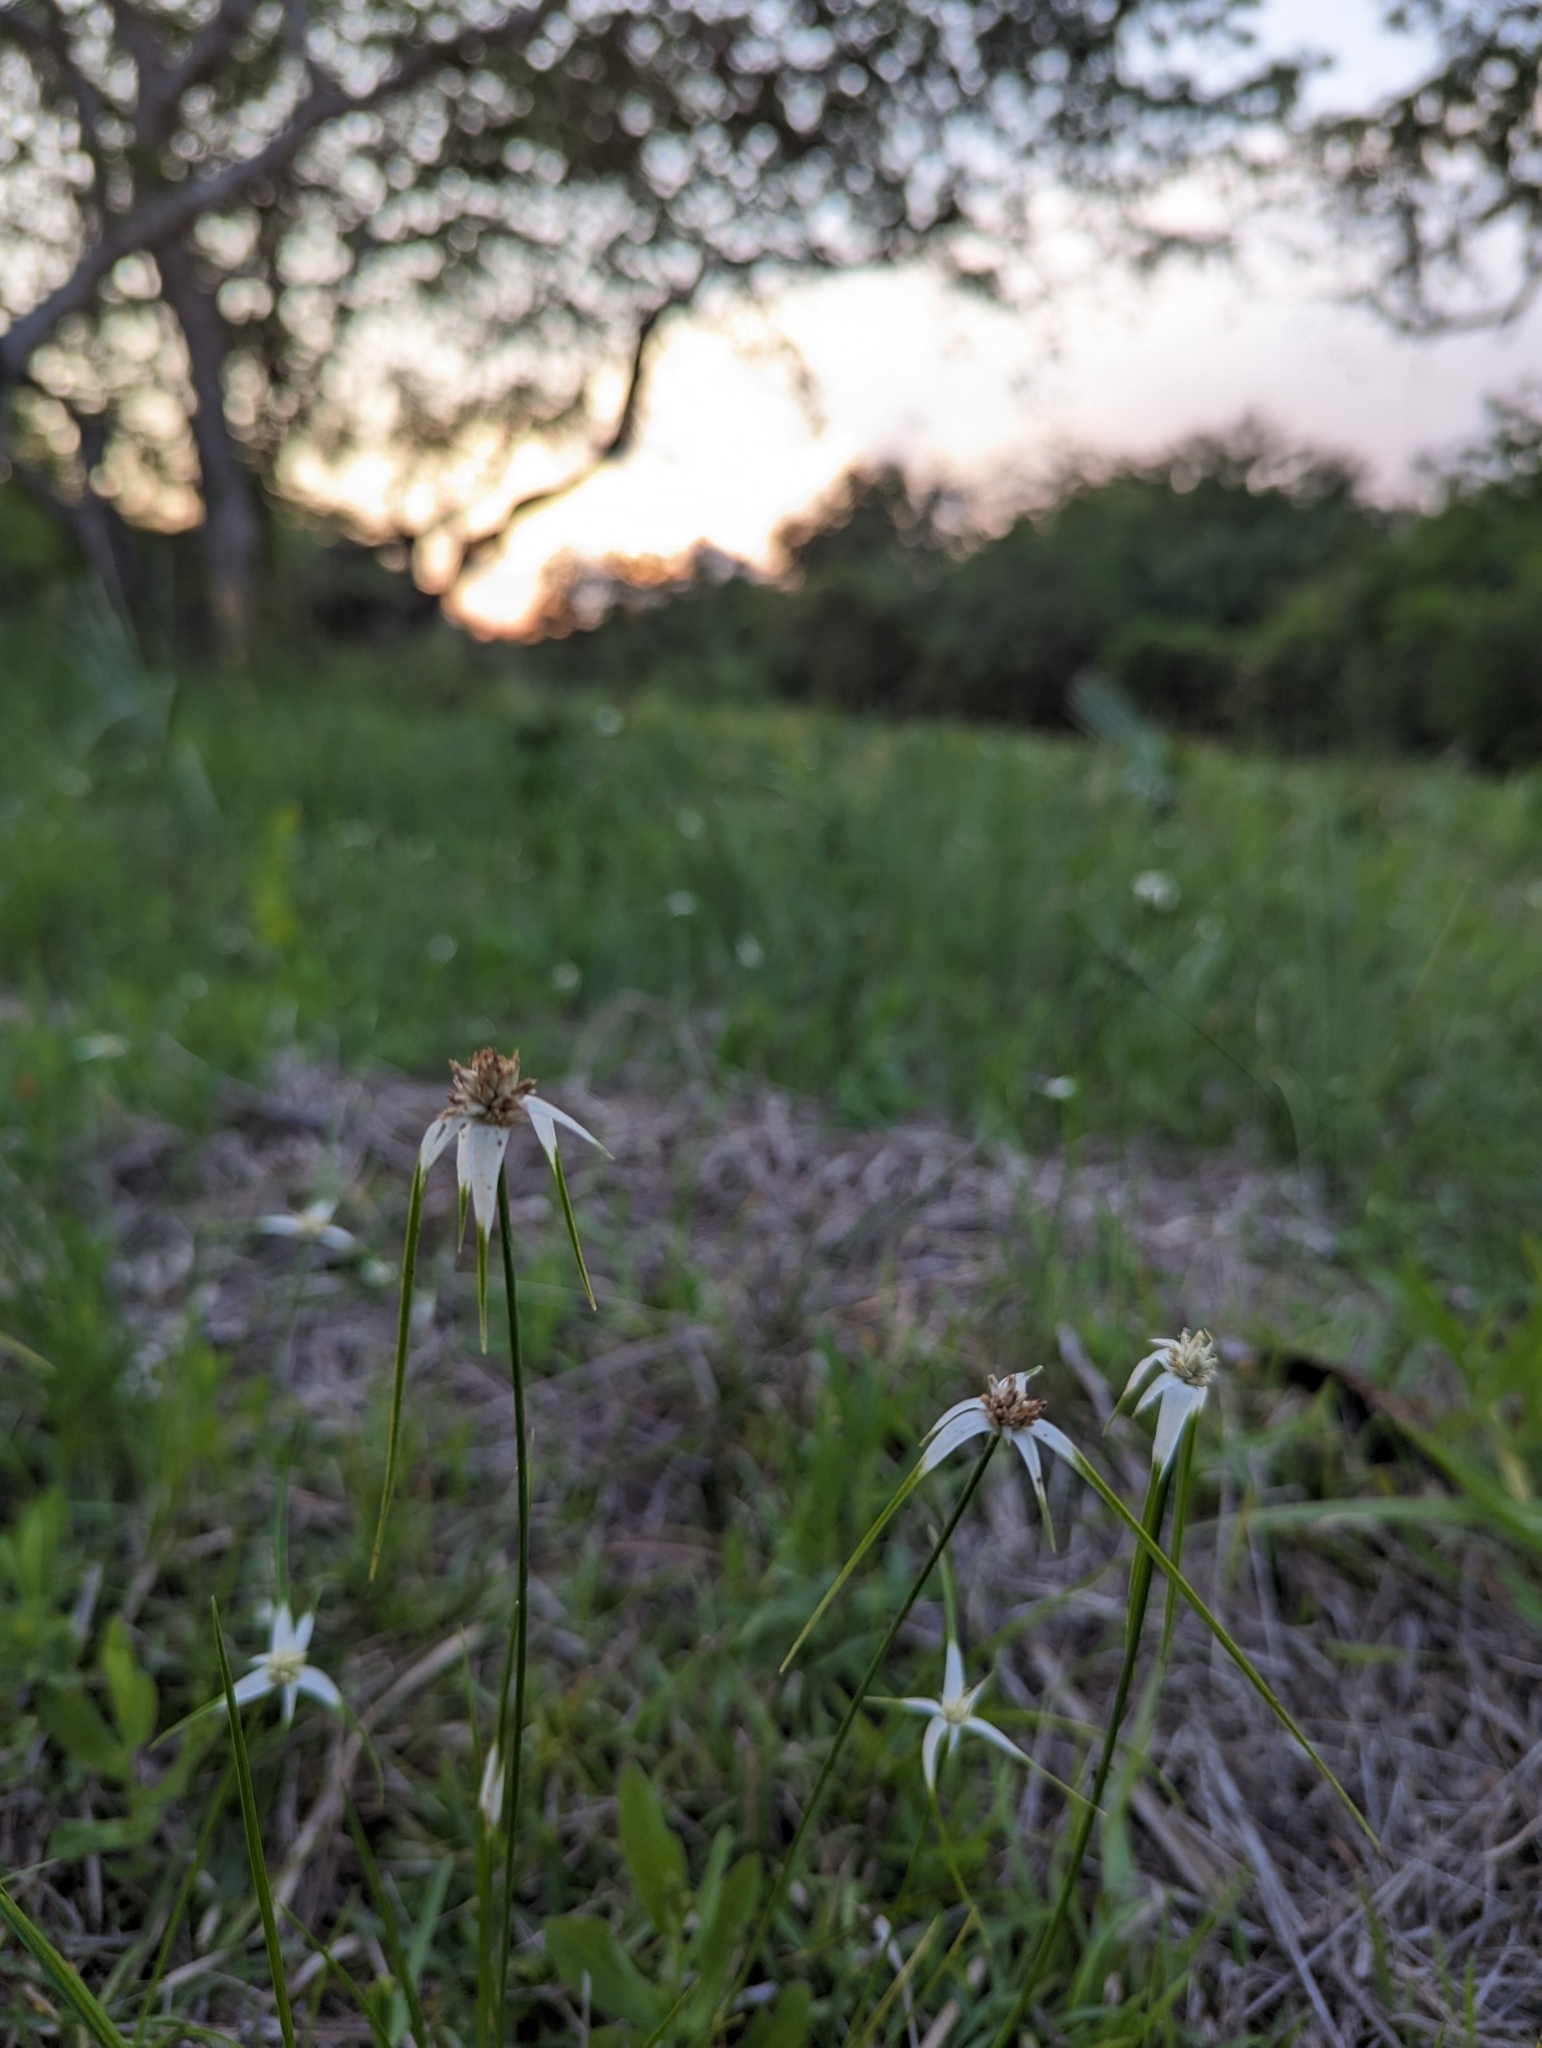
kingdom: Plantae
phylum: Tracheophyta
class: Liliopsida
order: Poales
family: Cyperaceae
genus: Rhynchospora
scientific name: Rhynchospora colorata
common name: Star sedge
